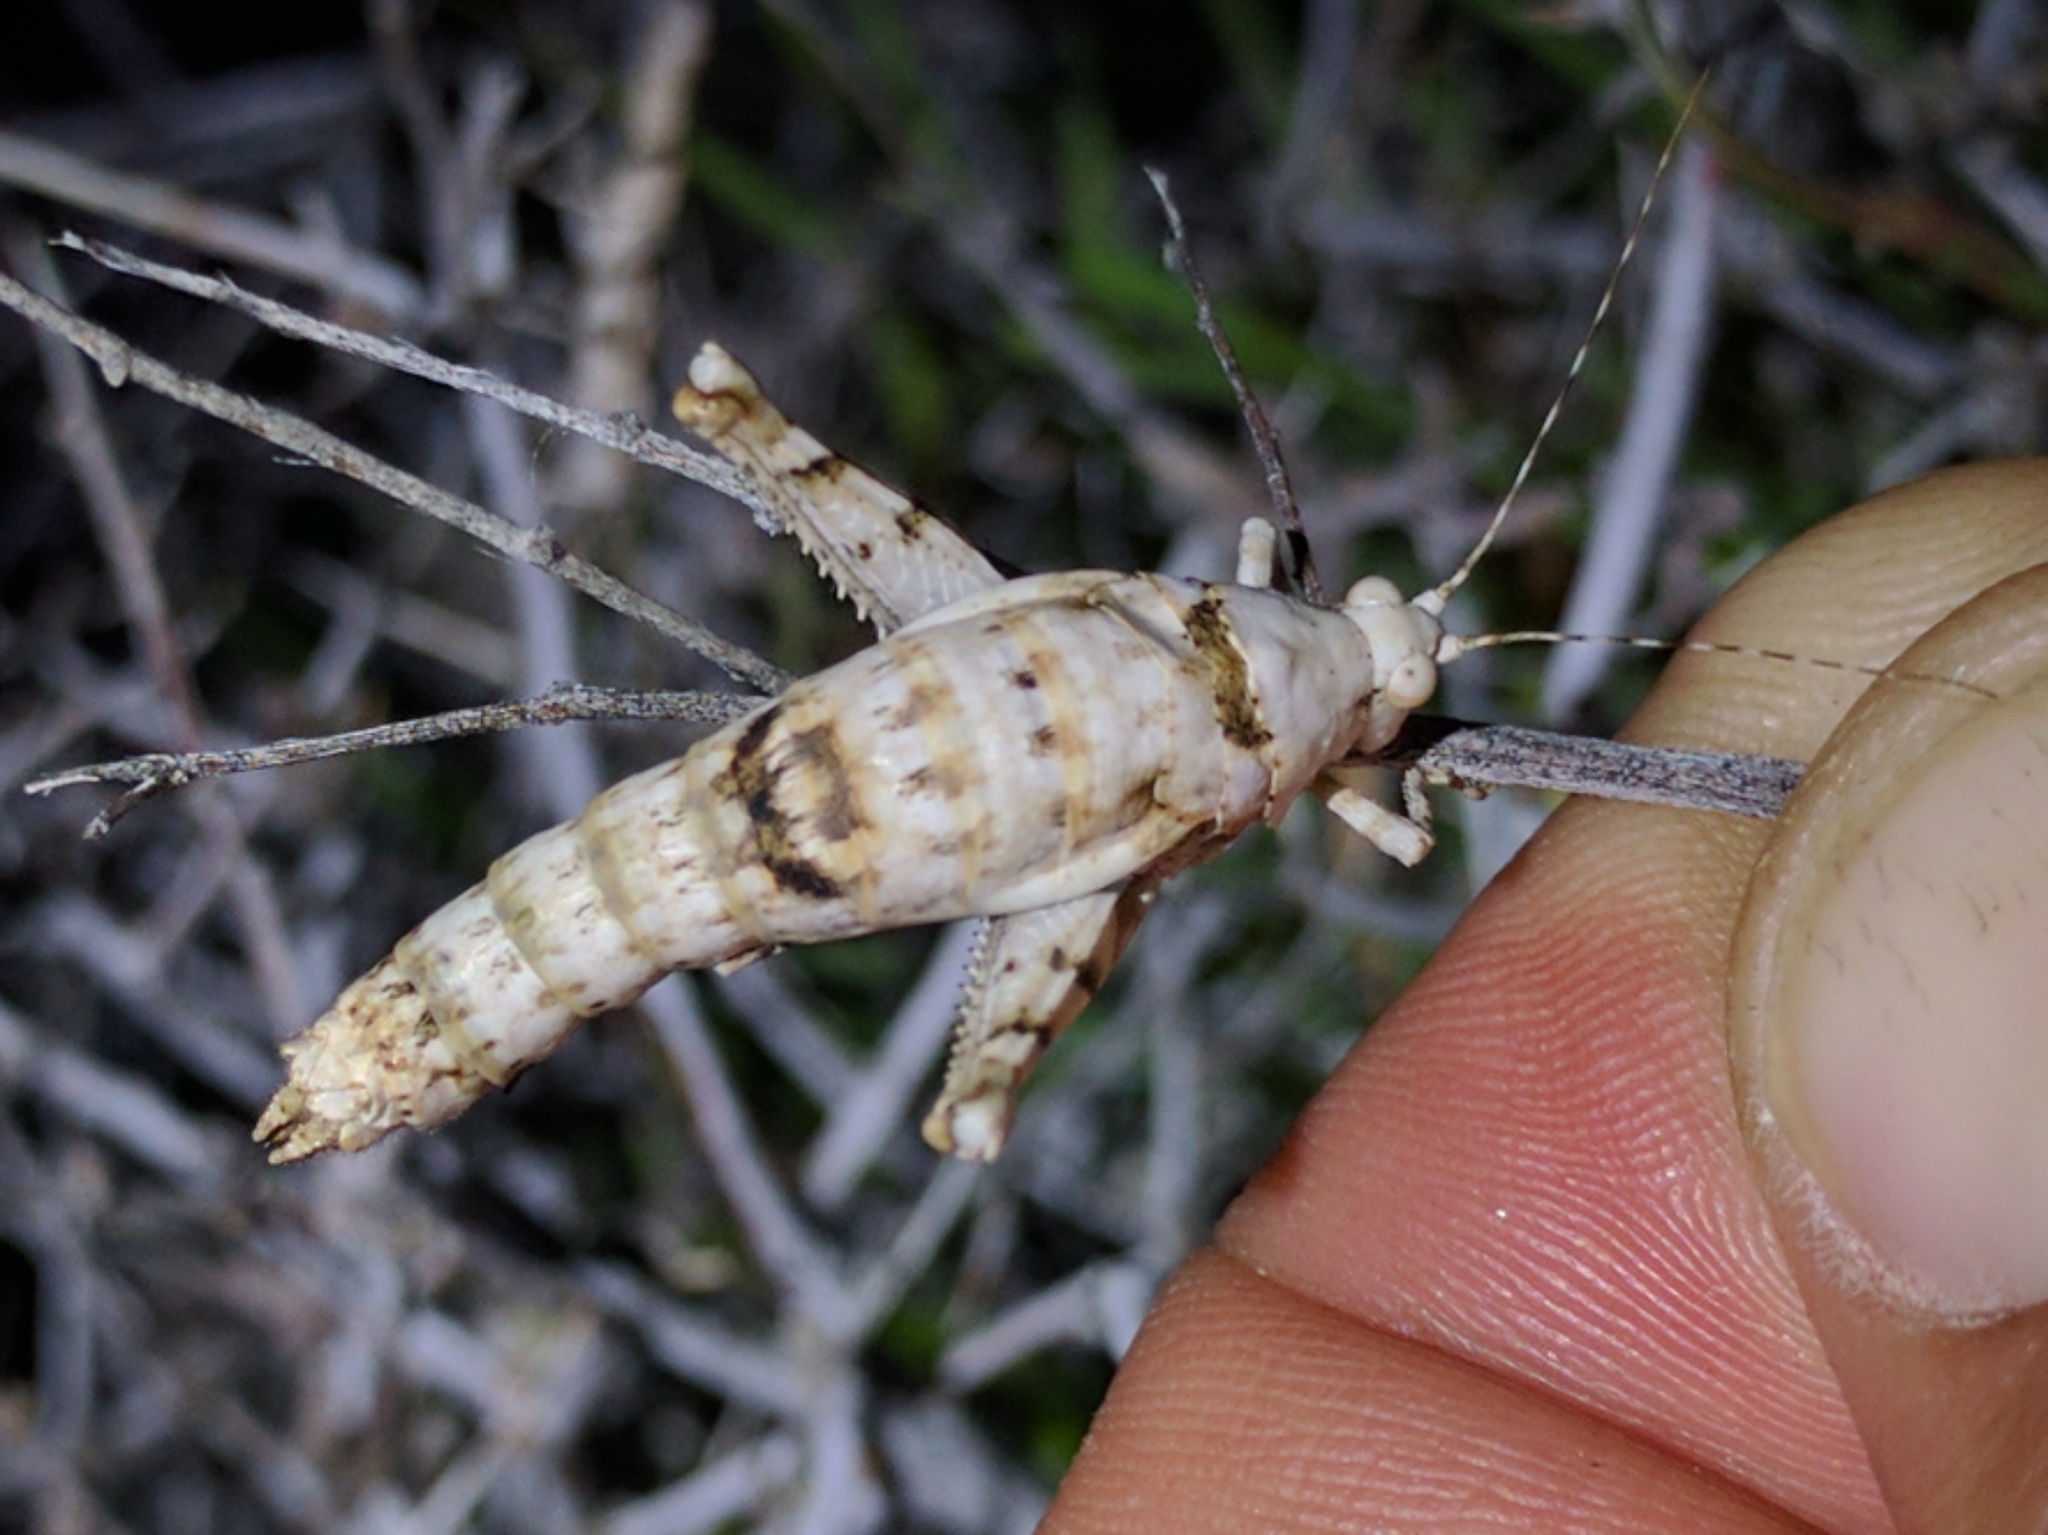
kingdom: Animalia
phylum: Arthropoda
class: Insecta
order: Orthoptera
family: Tanaoceridae
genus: Tanaocerus
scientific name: Tanaocerus koebelei
